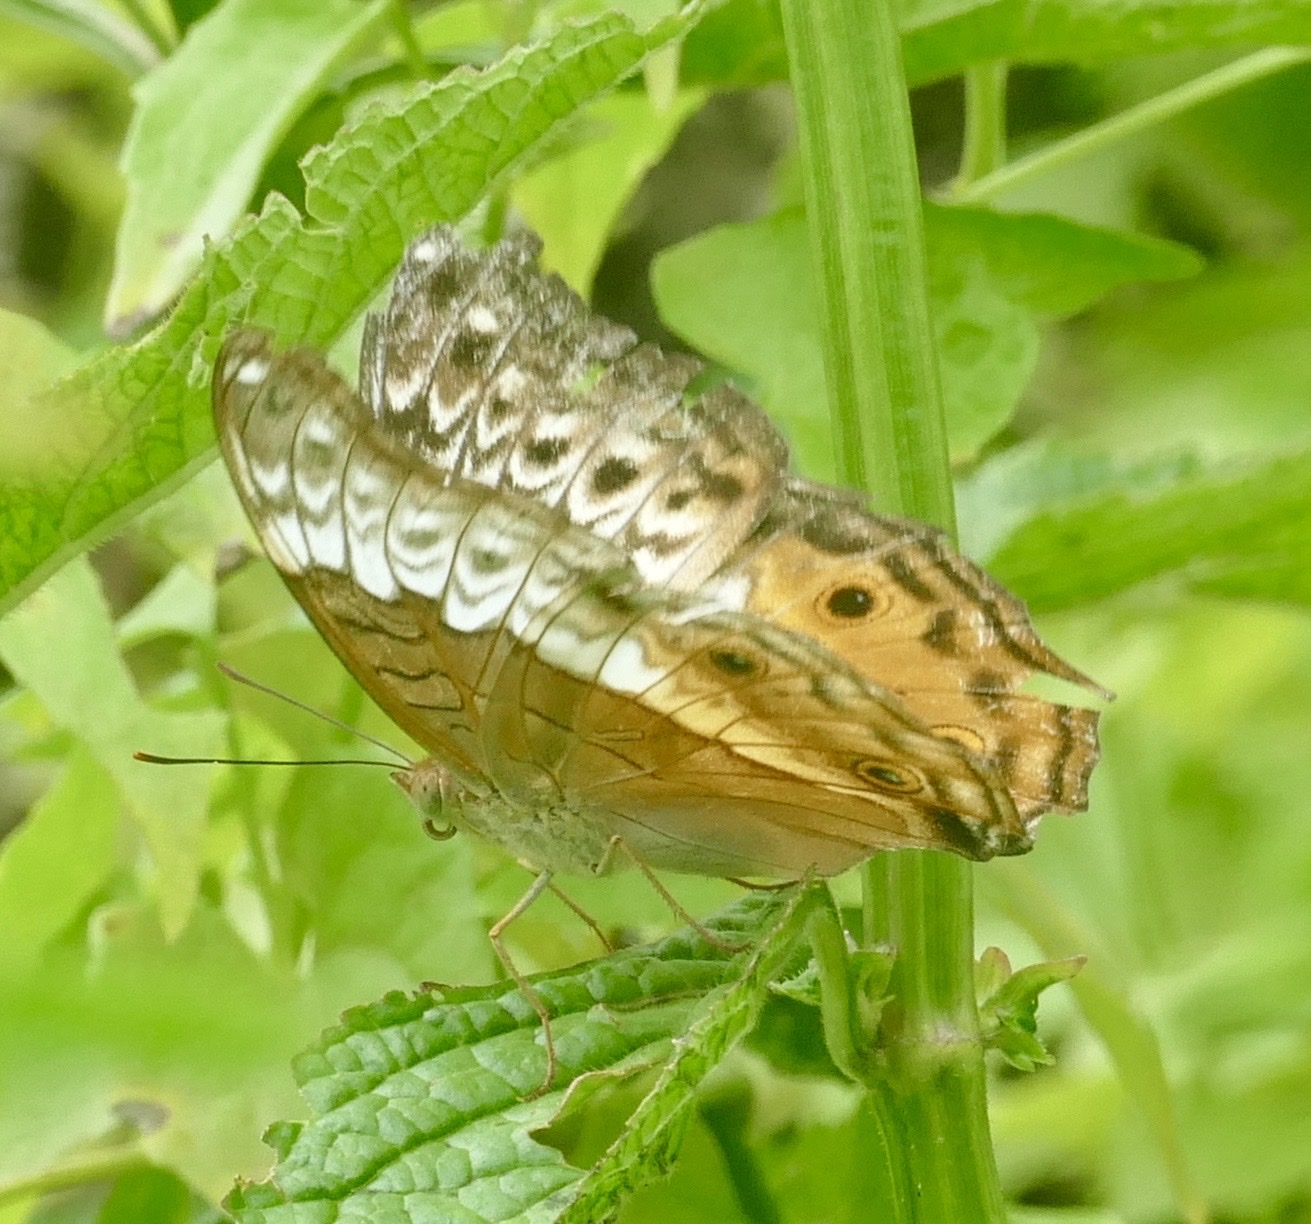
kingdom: Animalia
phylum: Arthropoda
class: Insecta
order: Lepidoptera
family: Nymphalidae
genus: Vindula
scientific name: Vindula arsinoe
